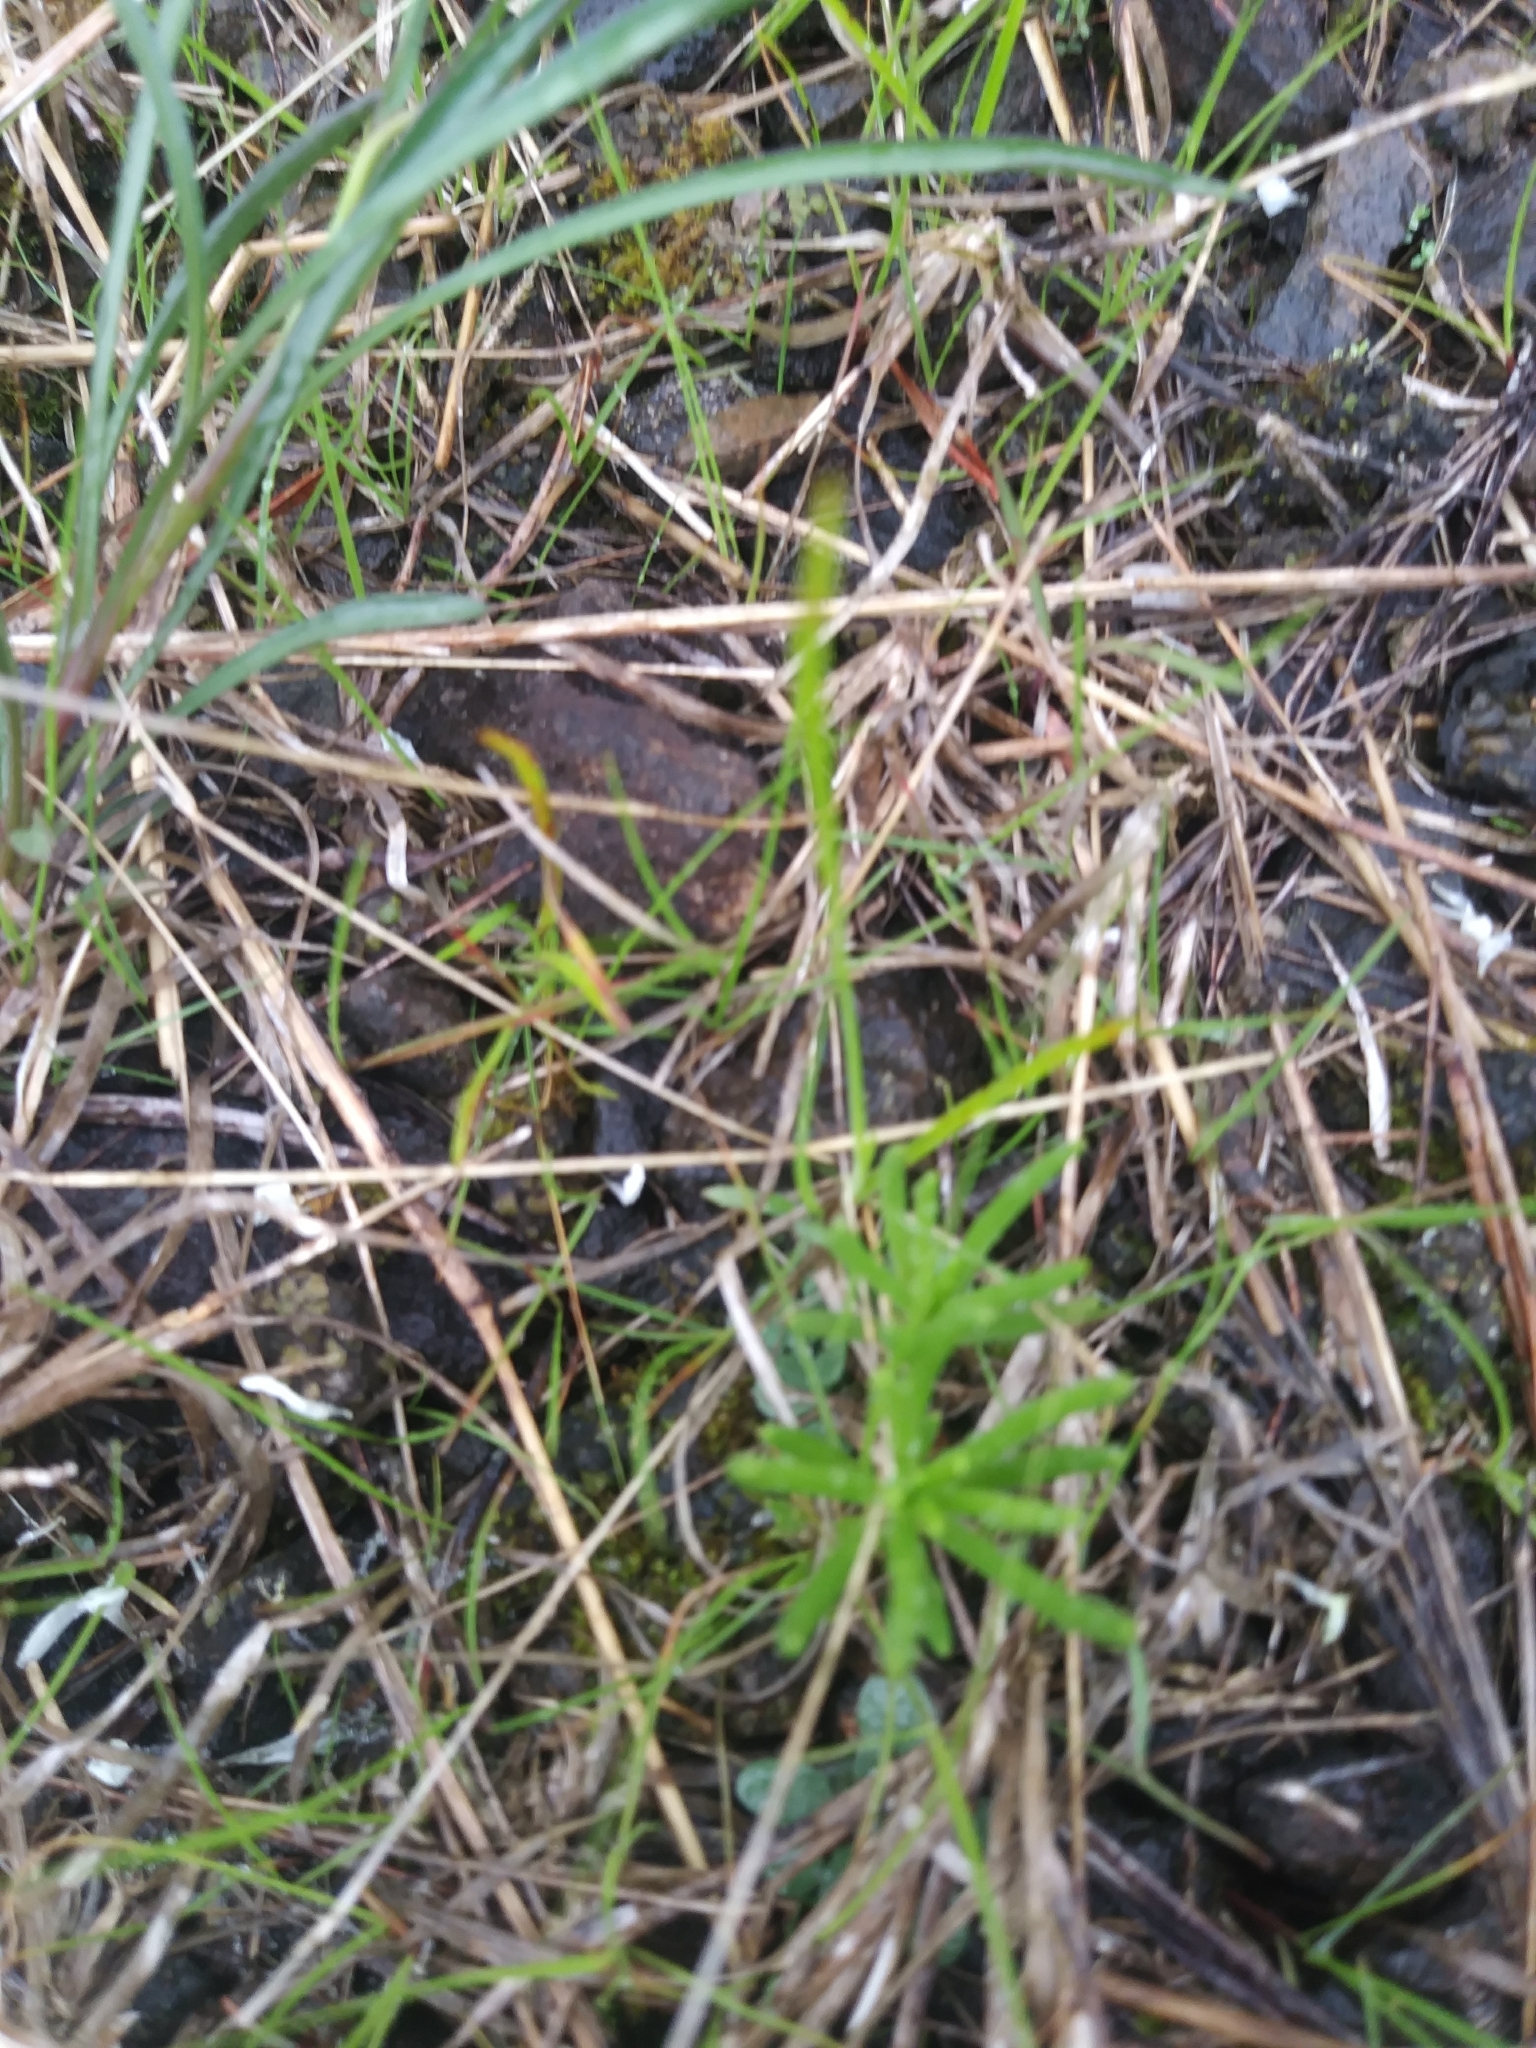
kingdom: Plantae
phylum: Tracheophyta
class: Magnoliopsida
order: Caryophyllales
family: Montiaceae
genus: Phemeranthus
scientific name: Phemeranthus teretifolius
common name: Quill fameflower
